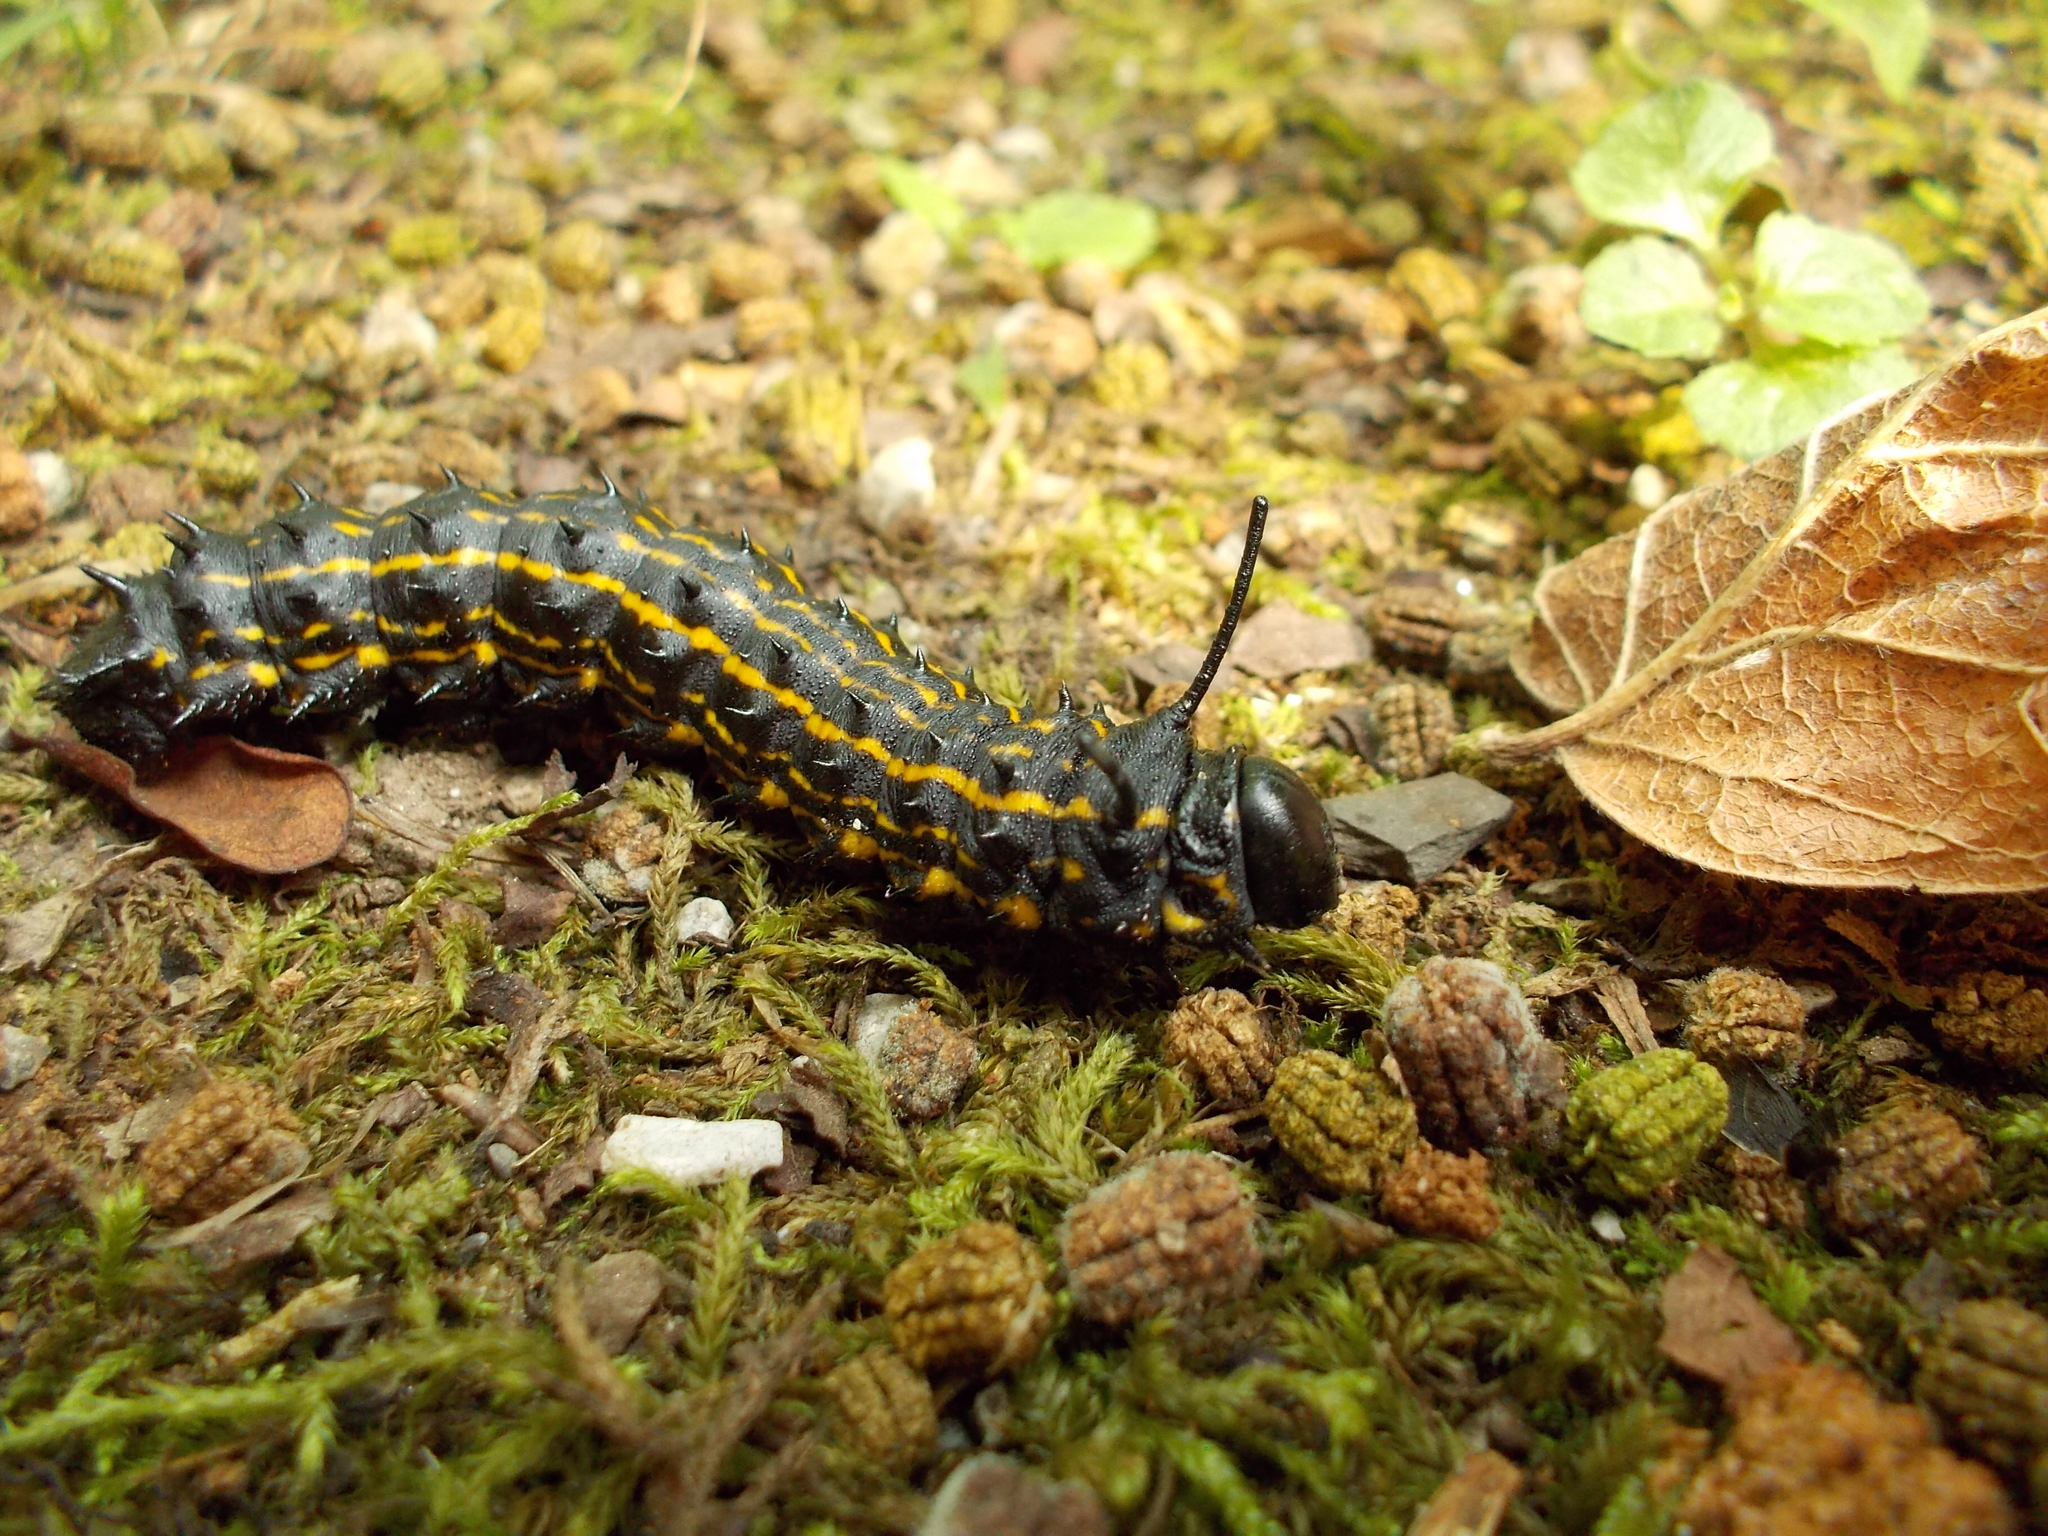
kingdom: Animalia
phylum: Arthropoda
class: Insecta
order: Lepidoptera
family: Saturniidae
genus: Anisota
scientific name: Anisota senatoria
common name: Orange-striped oakworm moth
